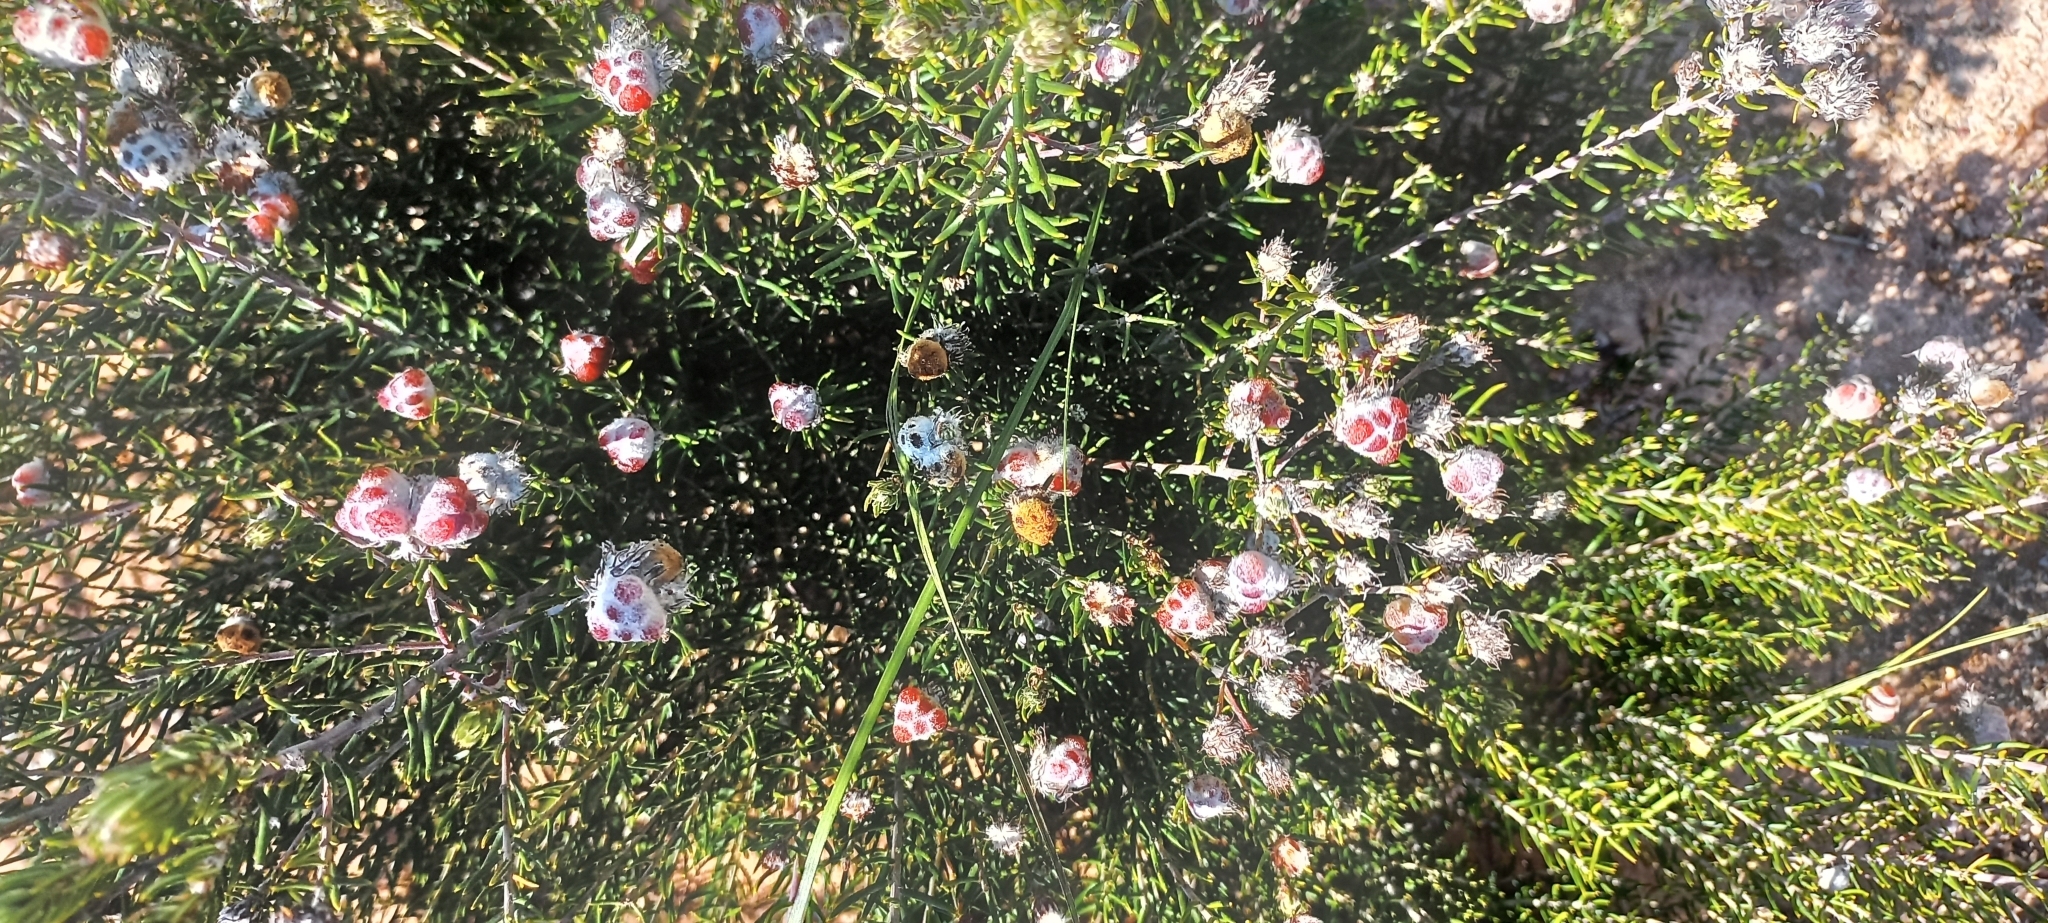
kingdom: Plantae
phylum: Tracheophyta
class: Magnoliopsida
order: Rosales
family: Rhamnaceae
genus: Trichocephalus
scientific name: Trichocephalus stipularis
